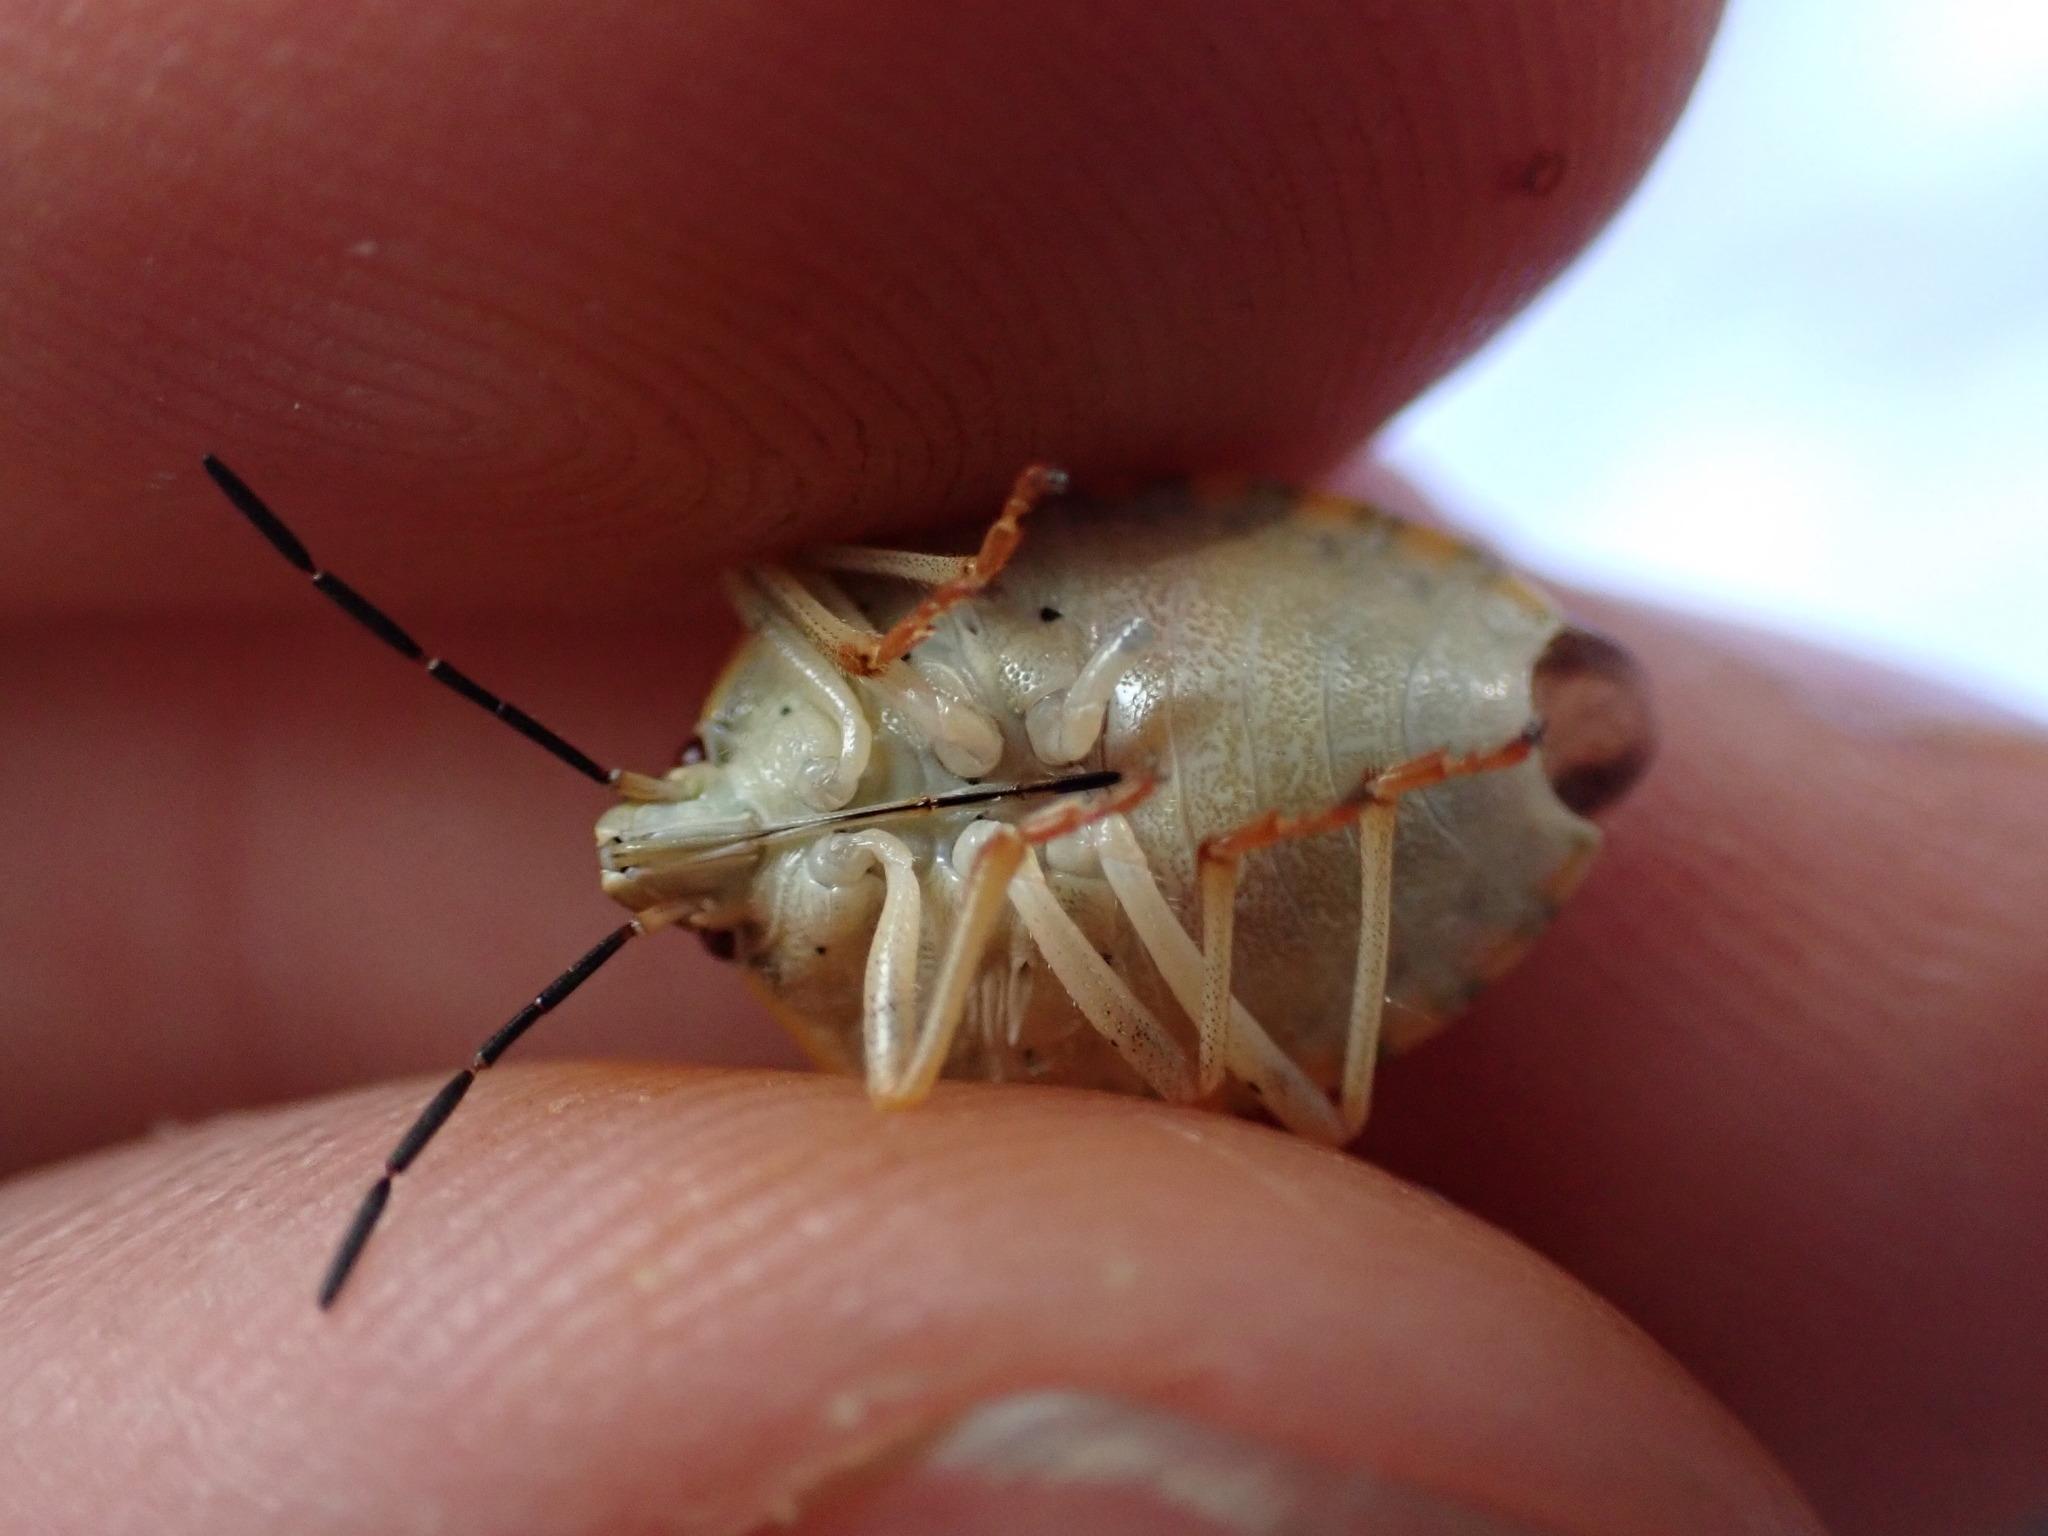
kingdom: Animalia
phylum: Arthropoda
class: Insecta
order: Hemiptera
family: Pentatomidae
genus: Carpocoris
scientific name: Carpocoris purpureipennis
